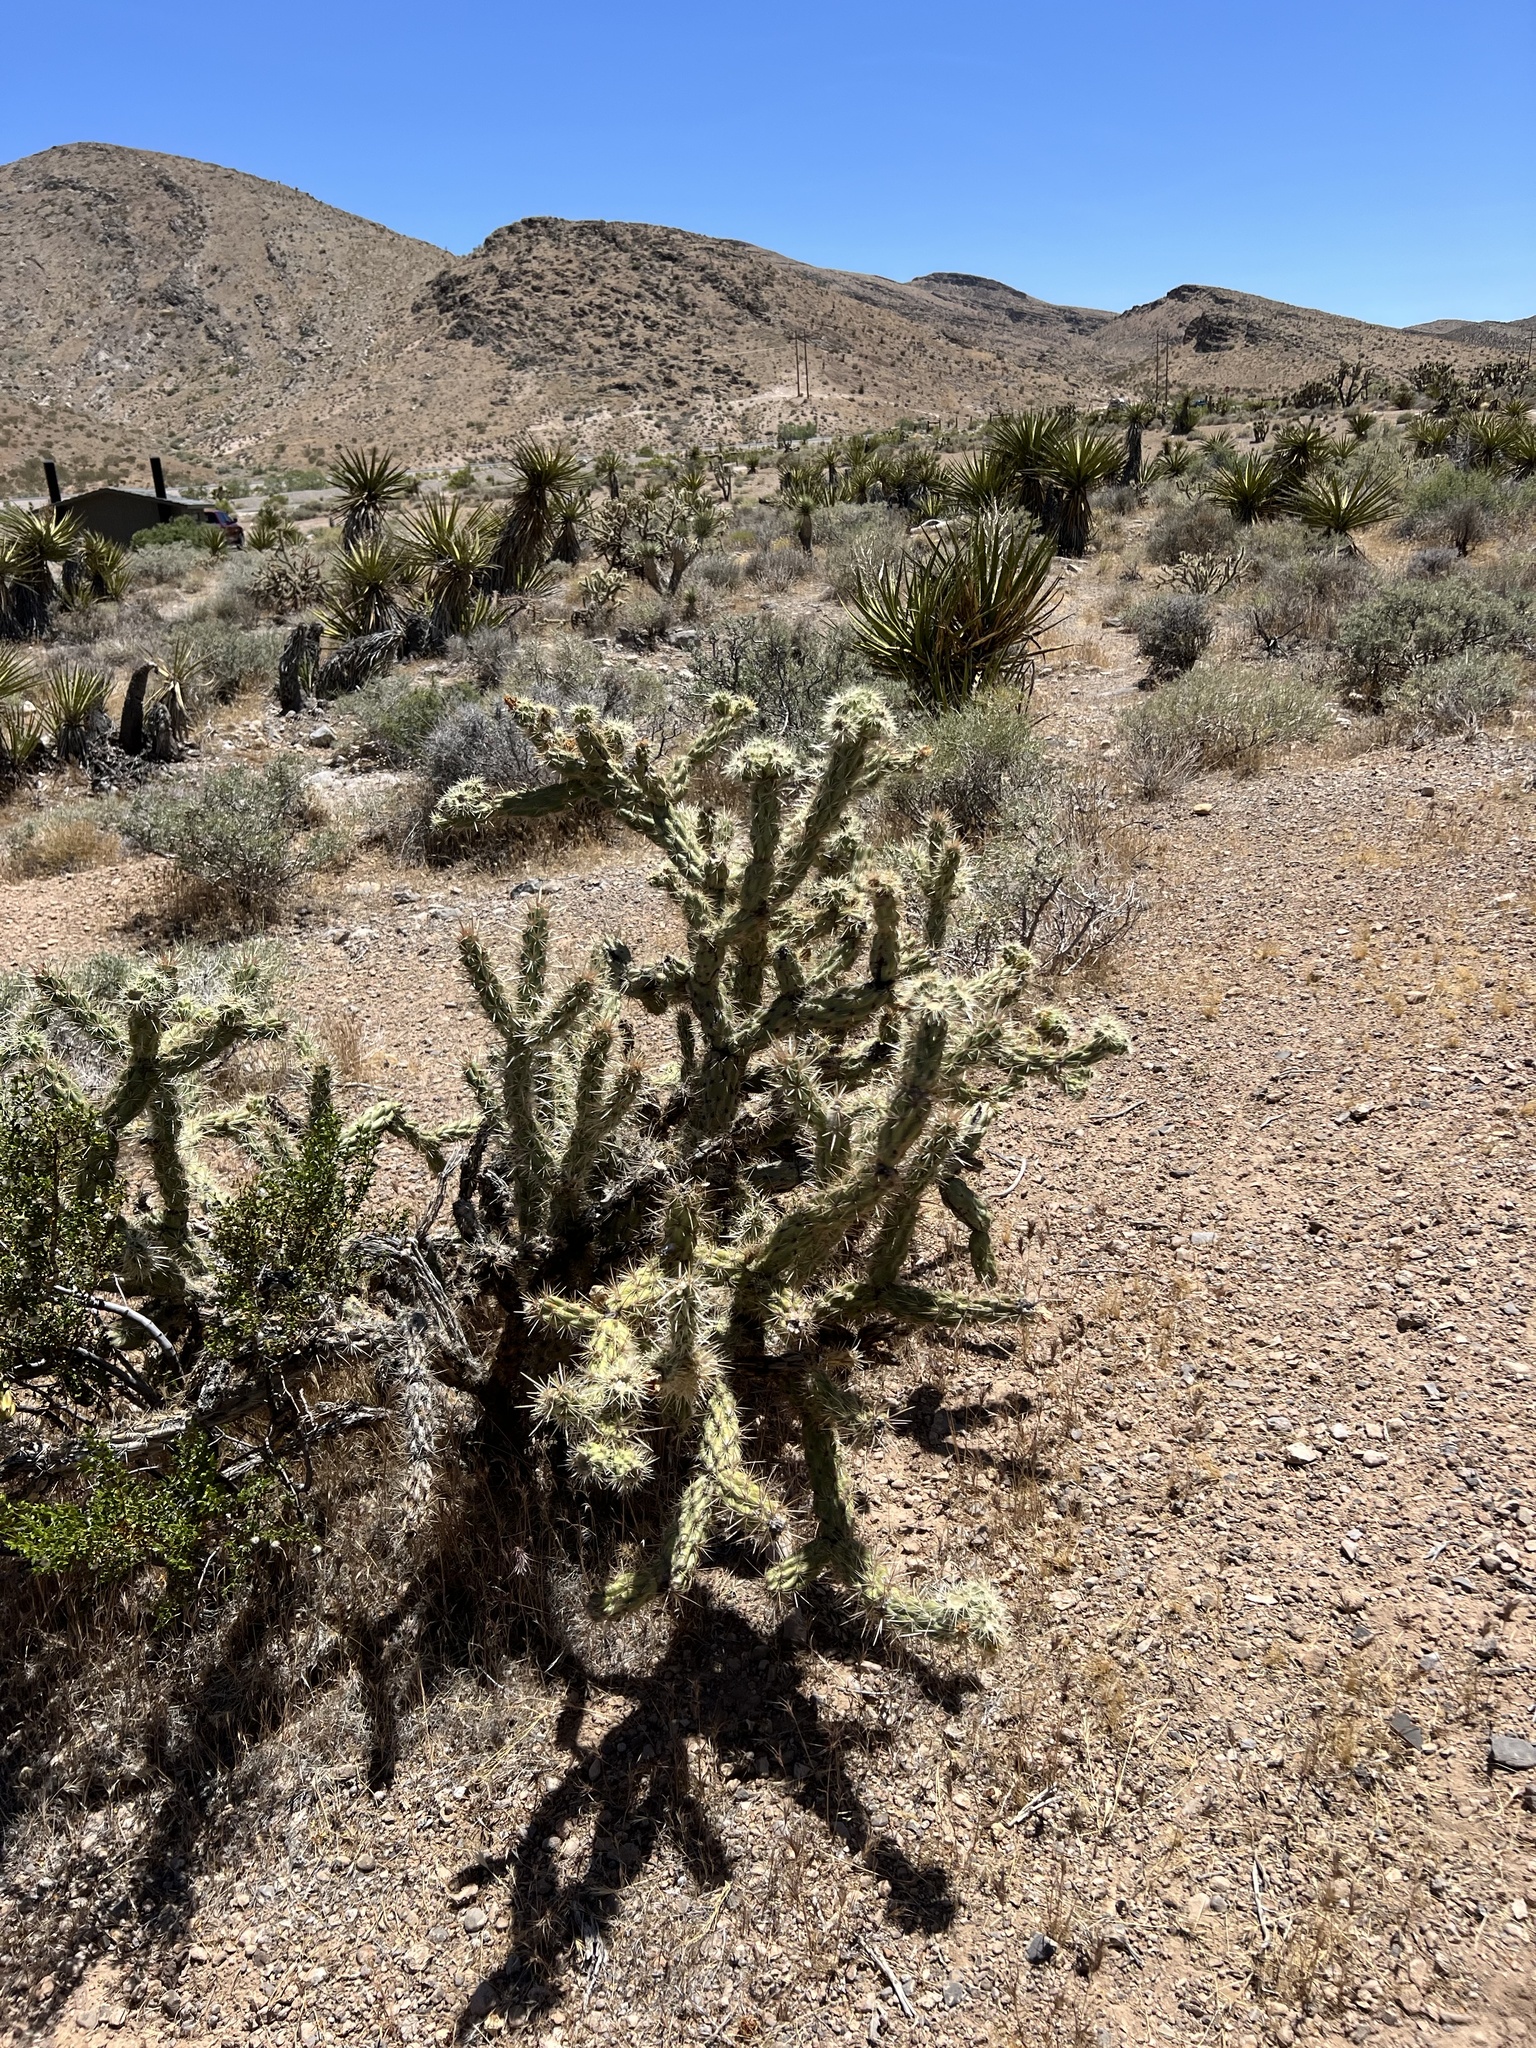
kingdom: Plantae
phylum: Tracheophyta
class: Magnoliopsida
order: Caryophyllales
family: Cactaceae
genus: Cylindropuntia
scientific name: Cylindropuntia acanthocarpa
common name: Buckhorn cholla
